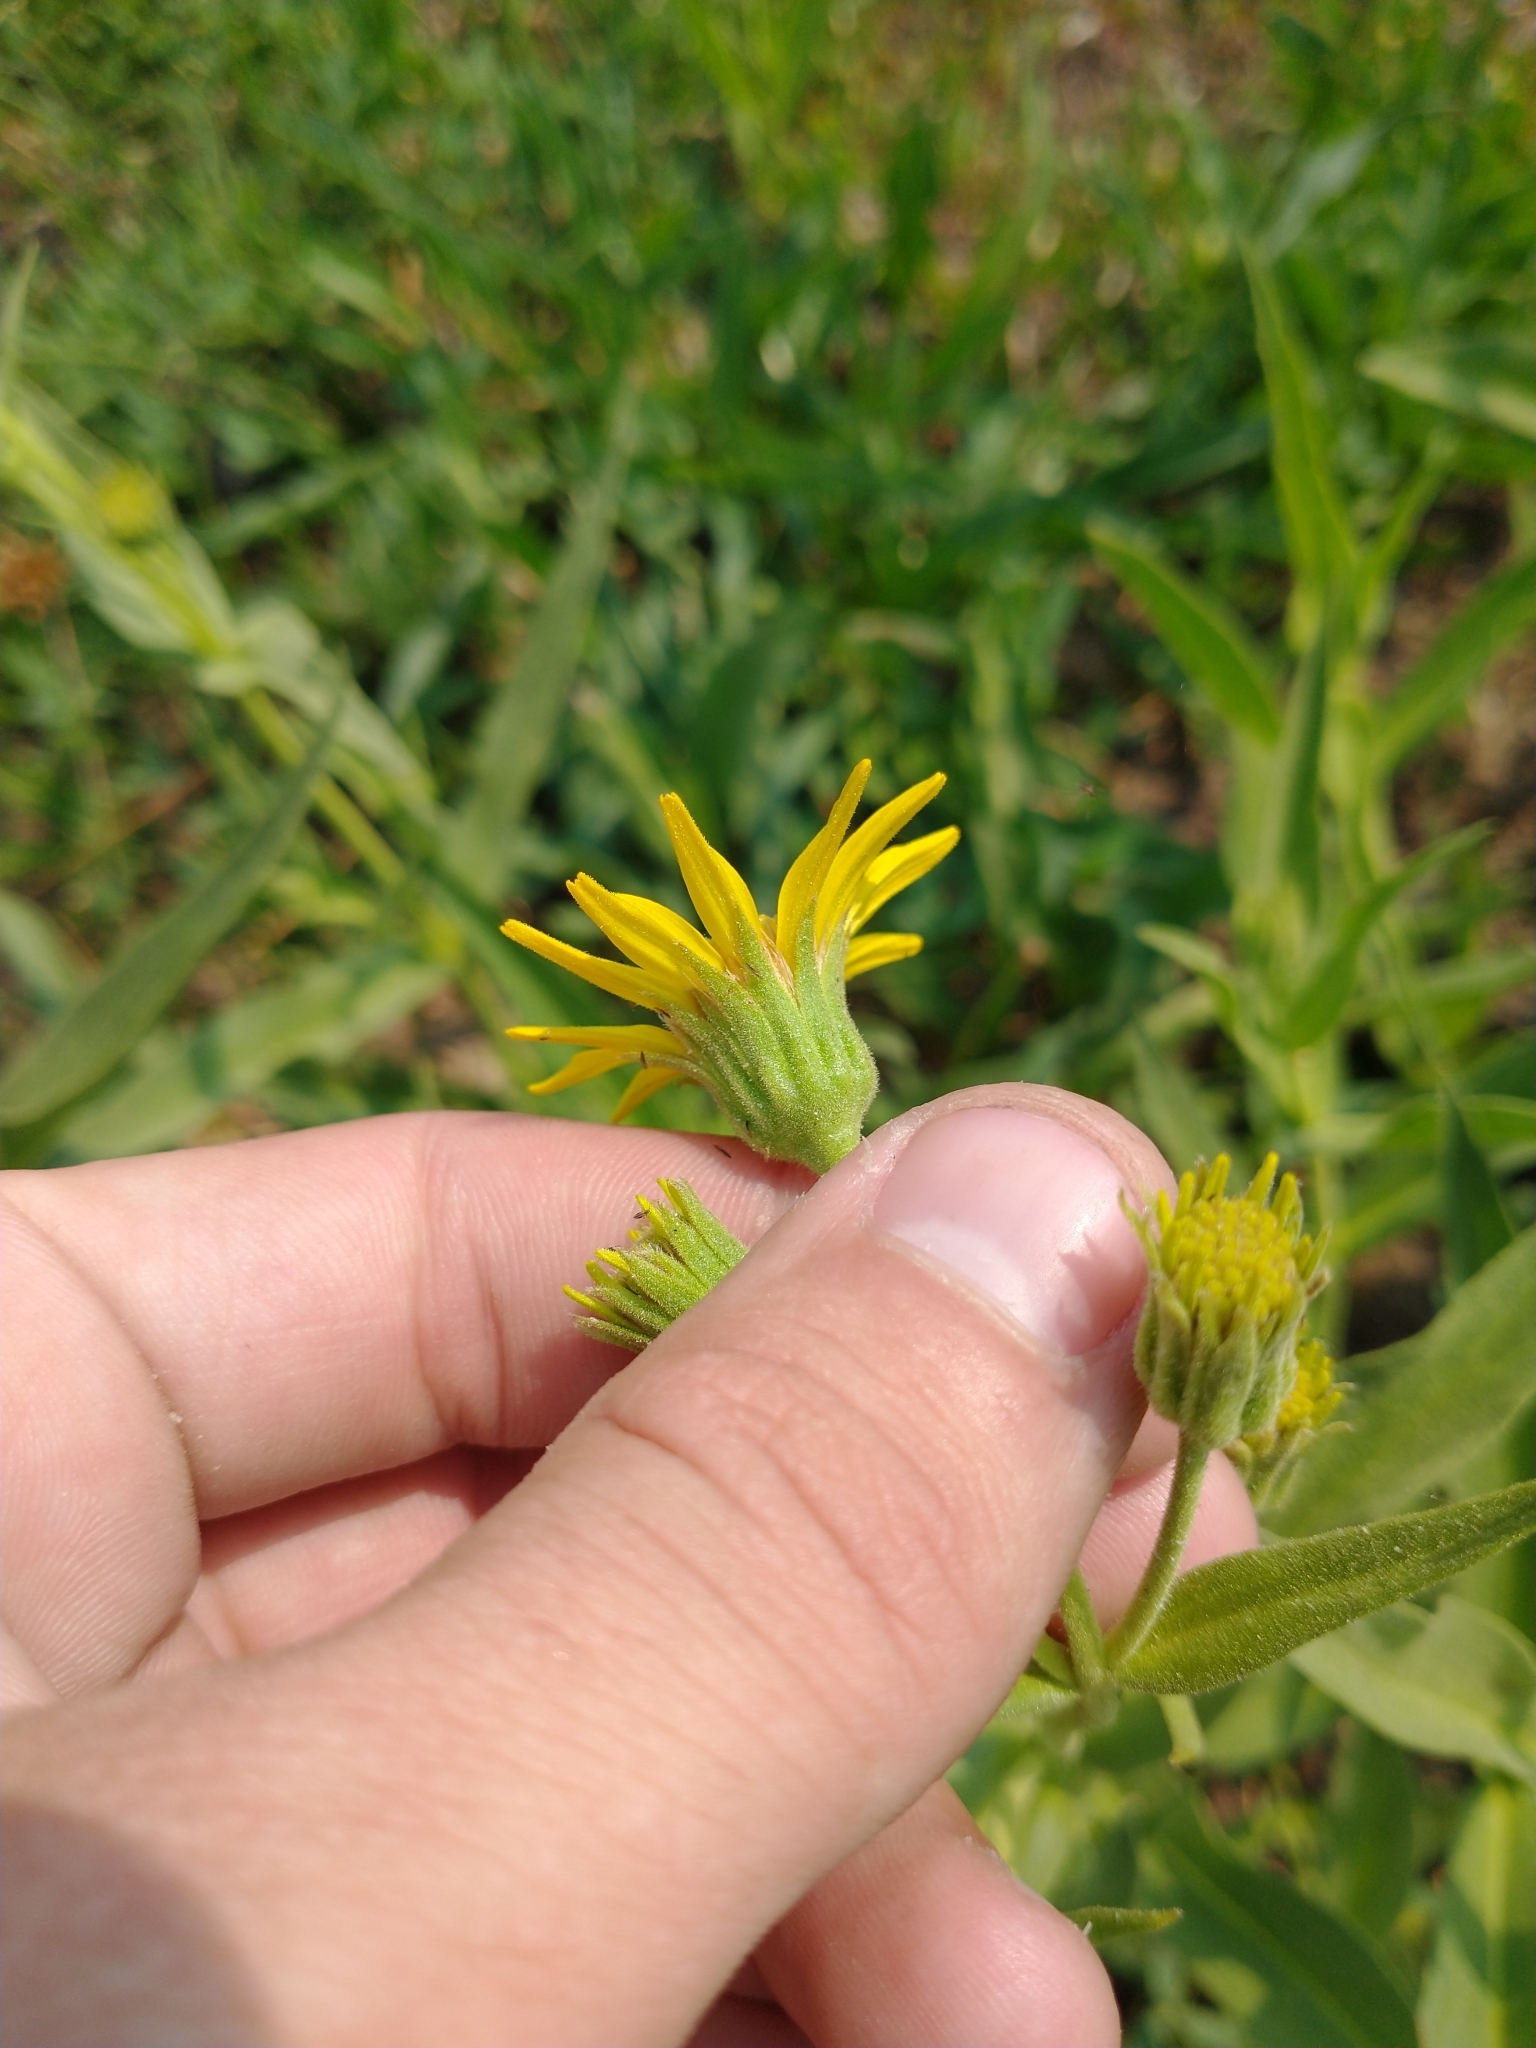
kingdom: Plantae
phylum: Tracheophyta
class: Magnoliopsida
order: Asterales
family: Asteraceae
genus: Arnica
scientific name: Arnica longifolia
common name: Spear-leaf arnica
